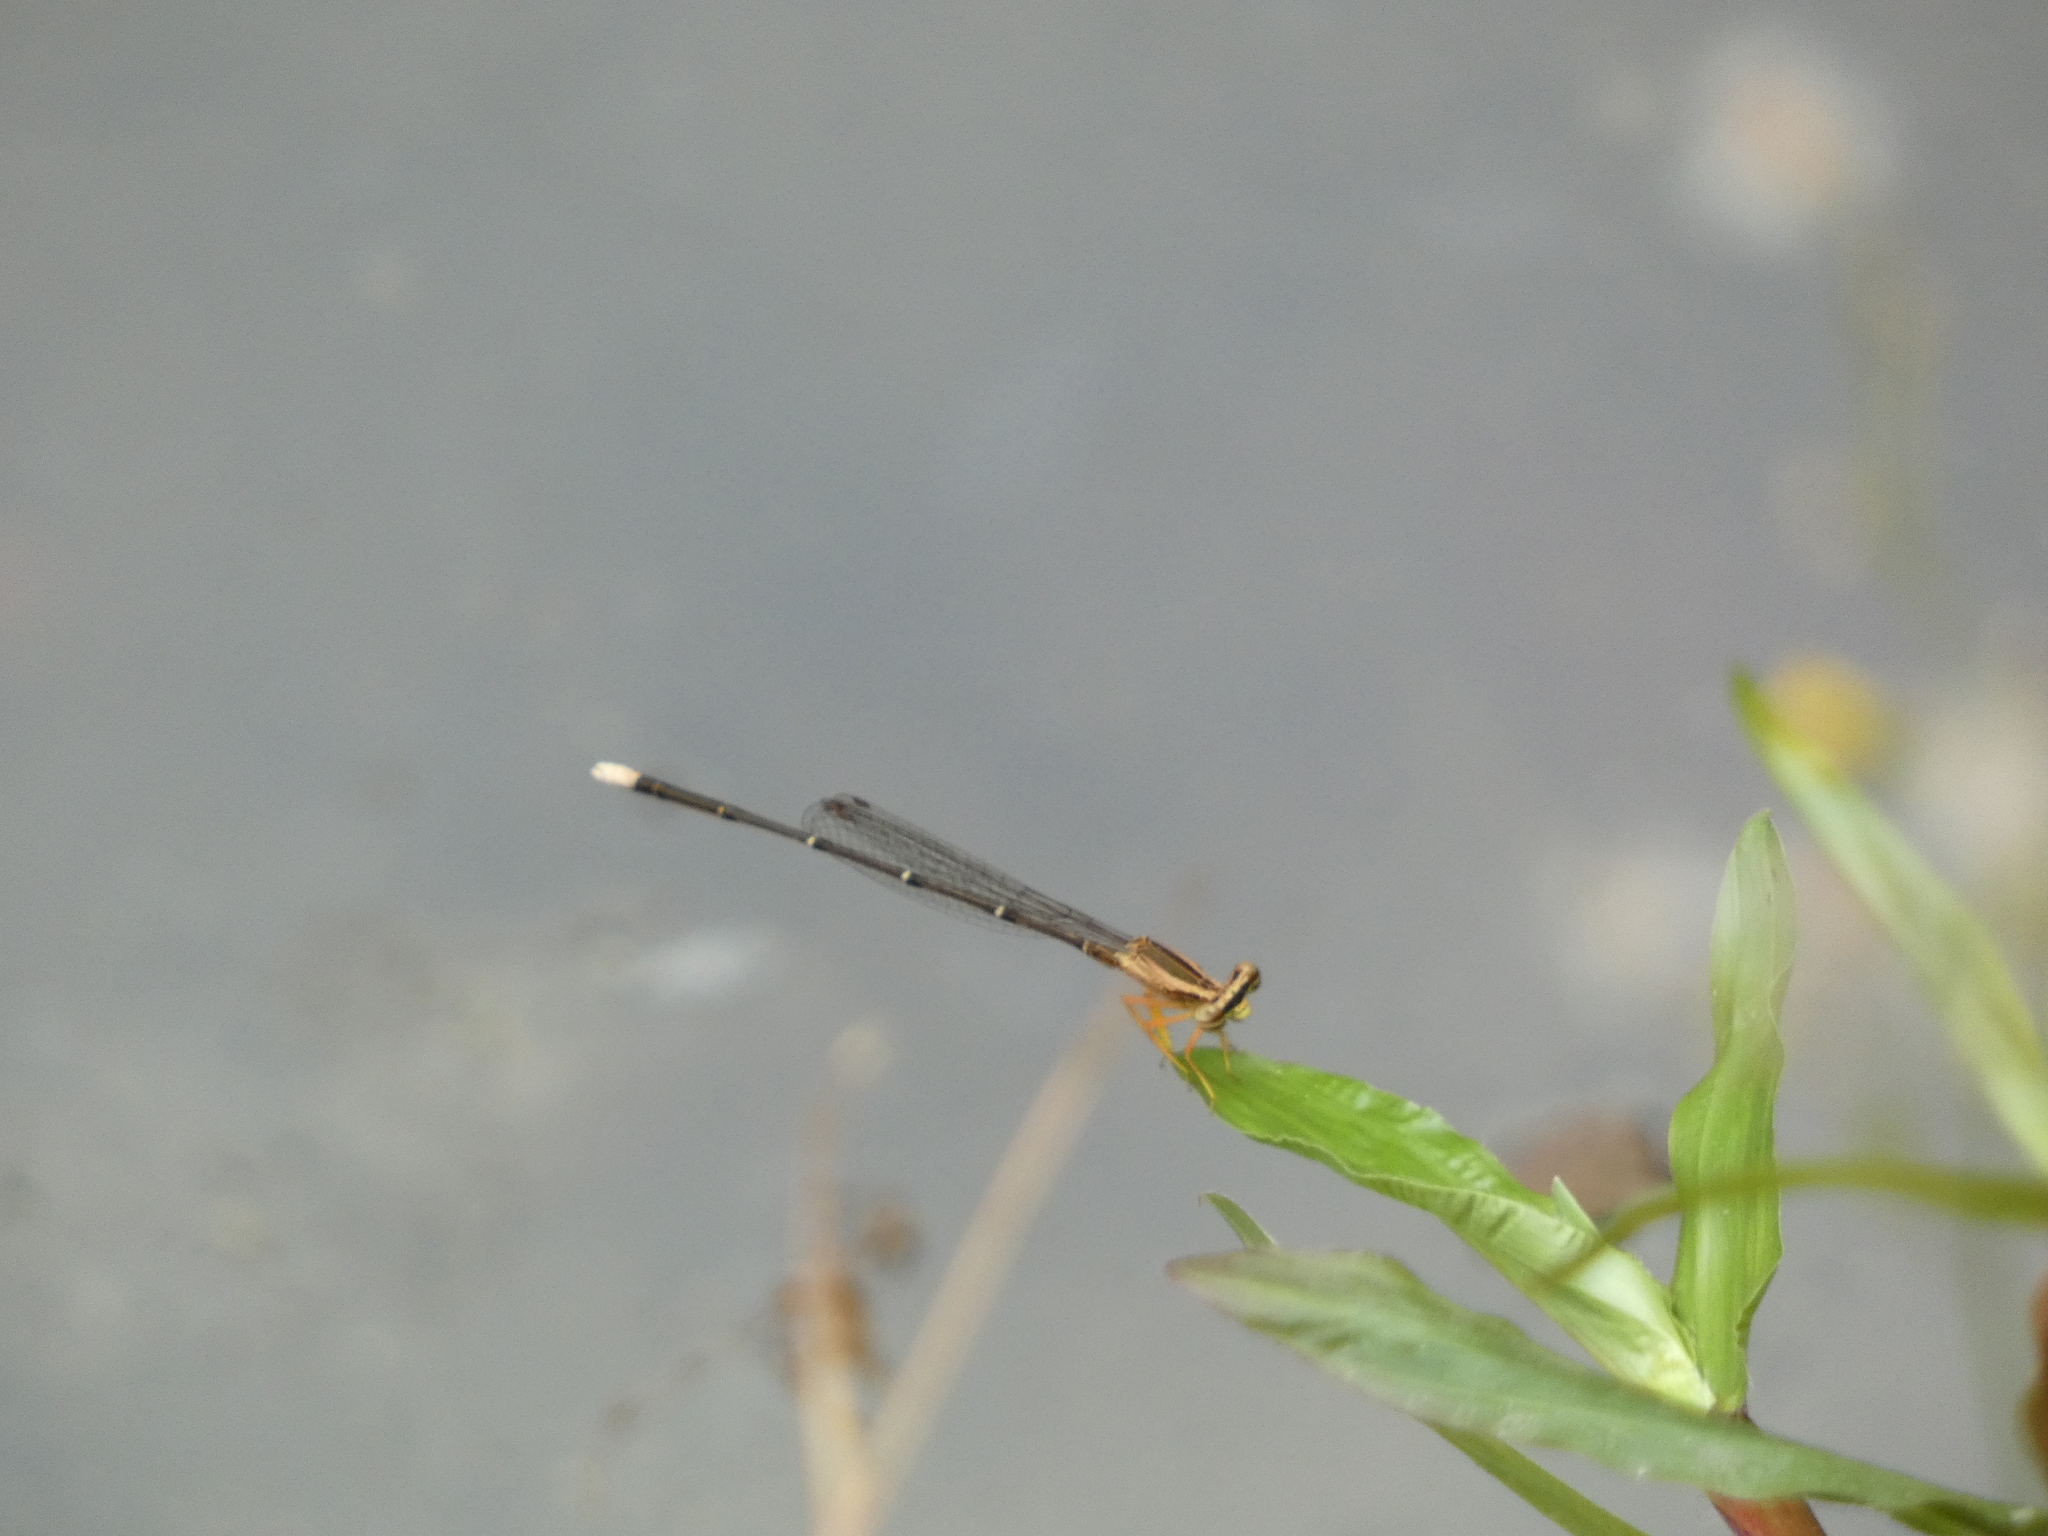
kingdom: Animalia
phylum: Arthropoda
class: Insecta
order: Odonata
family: Platycnemididae
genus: Copera
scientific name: Copera marginipes
